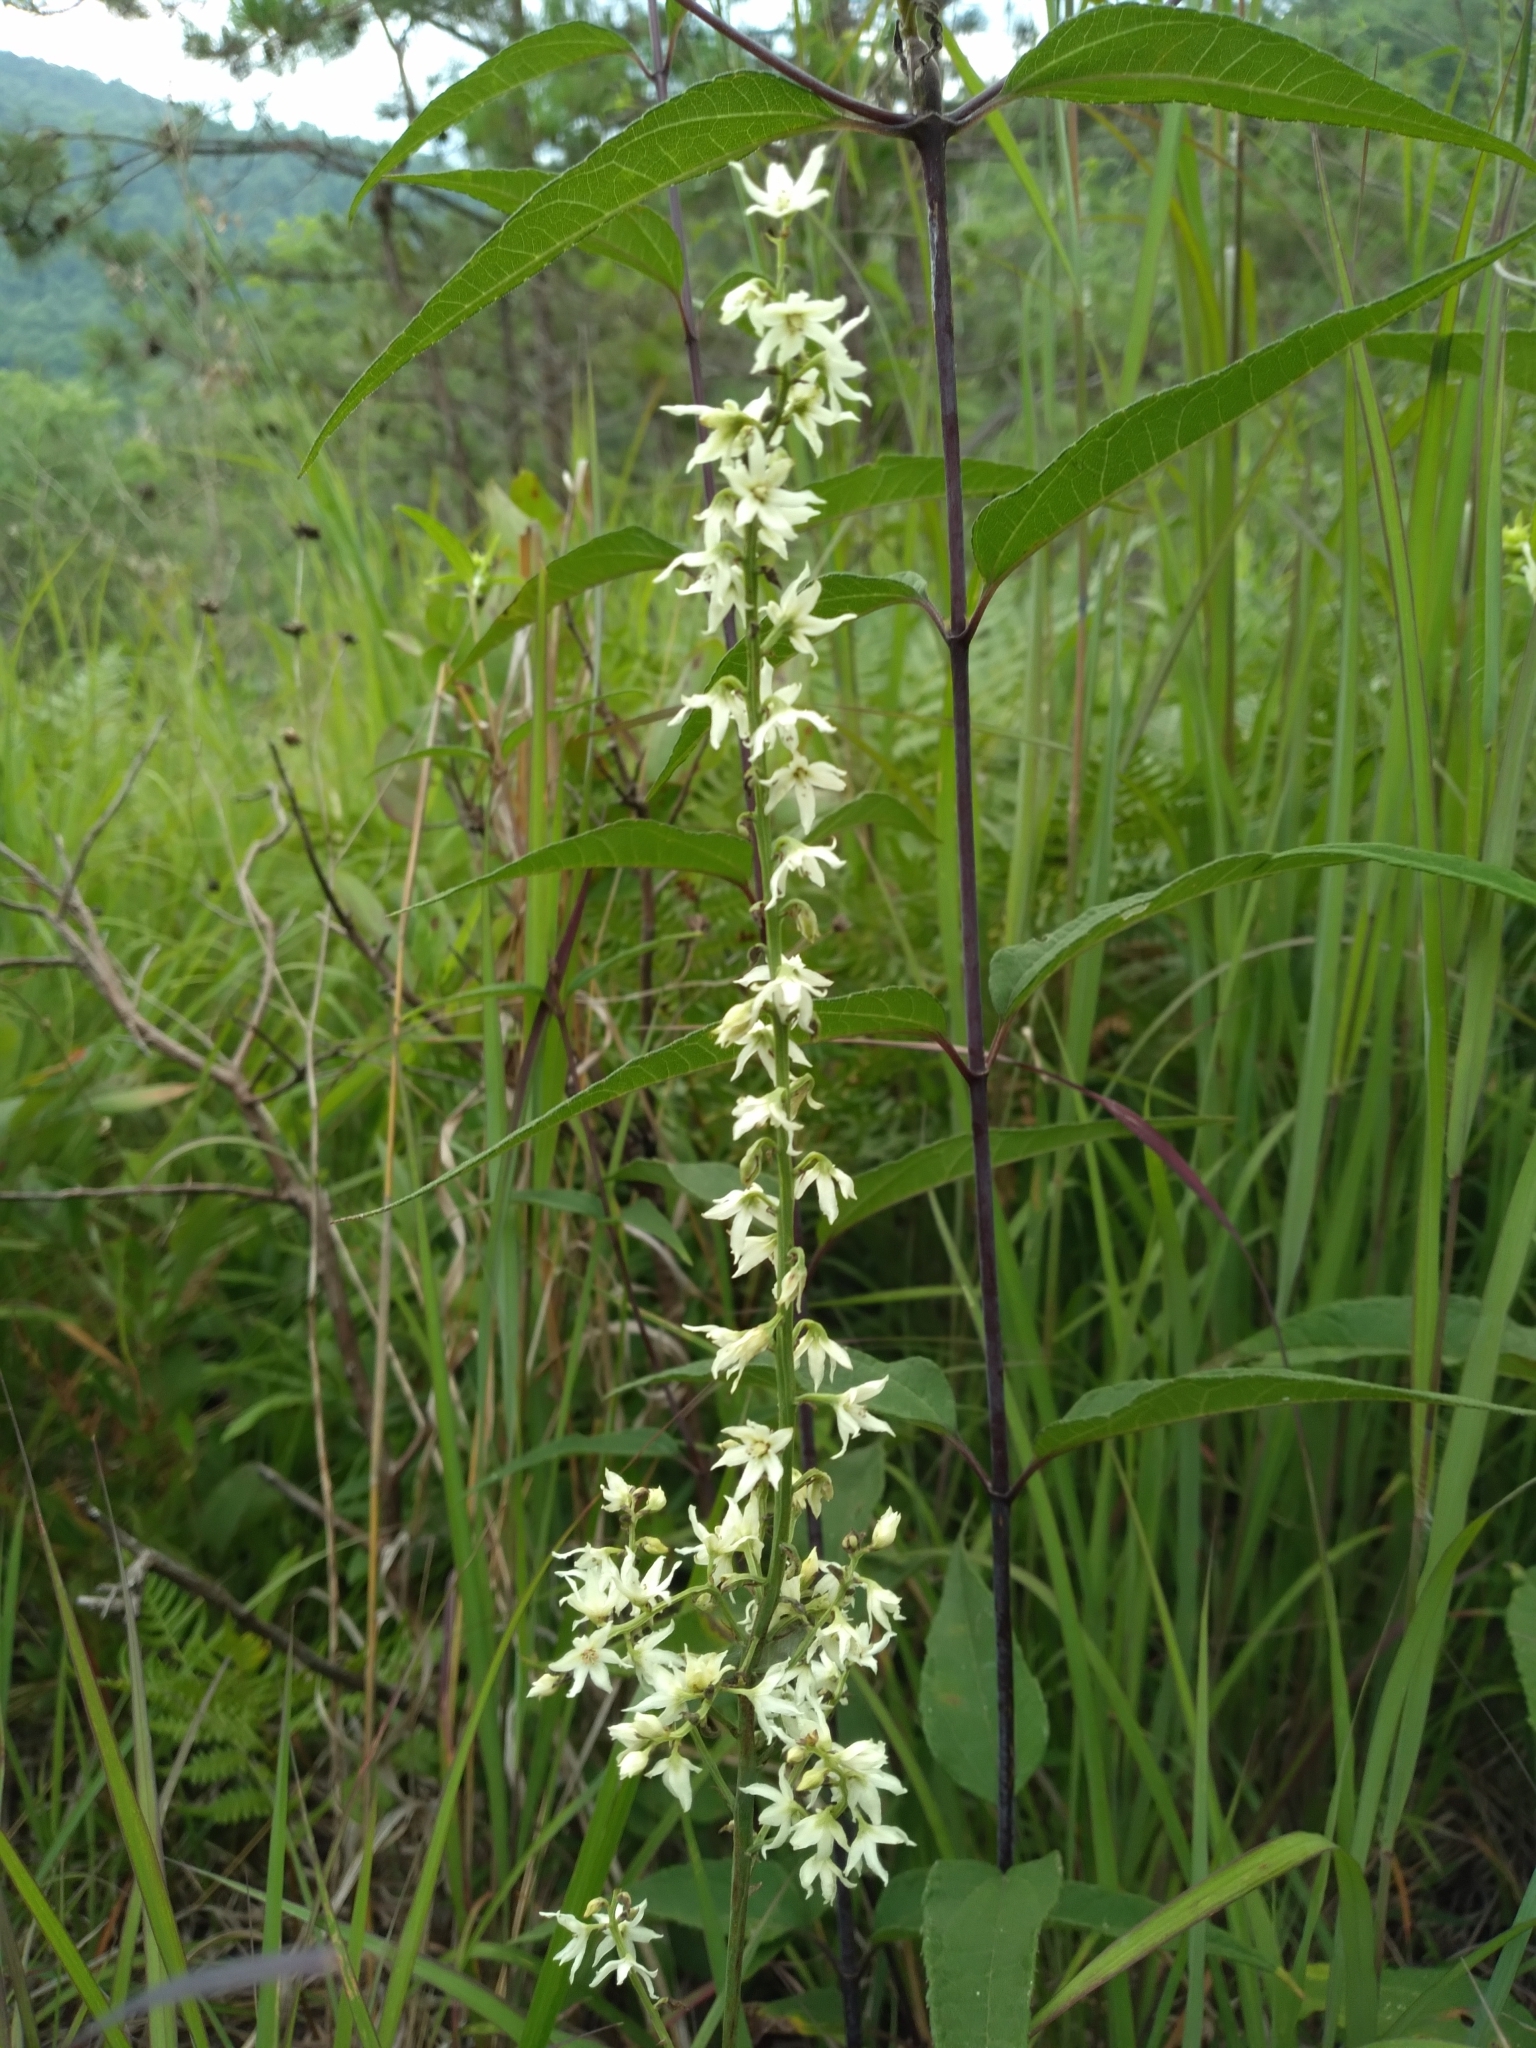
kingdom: Plantae
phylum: Tracheophyta
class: Liliopsida
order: Liliales
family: Melanthiaceae
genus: Stenanthium
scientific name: Stenanthium gramineum
